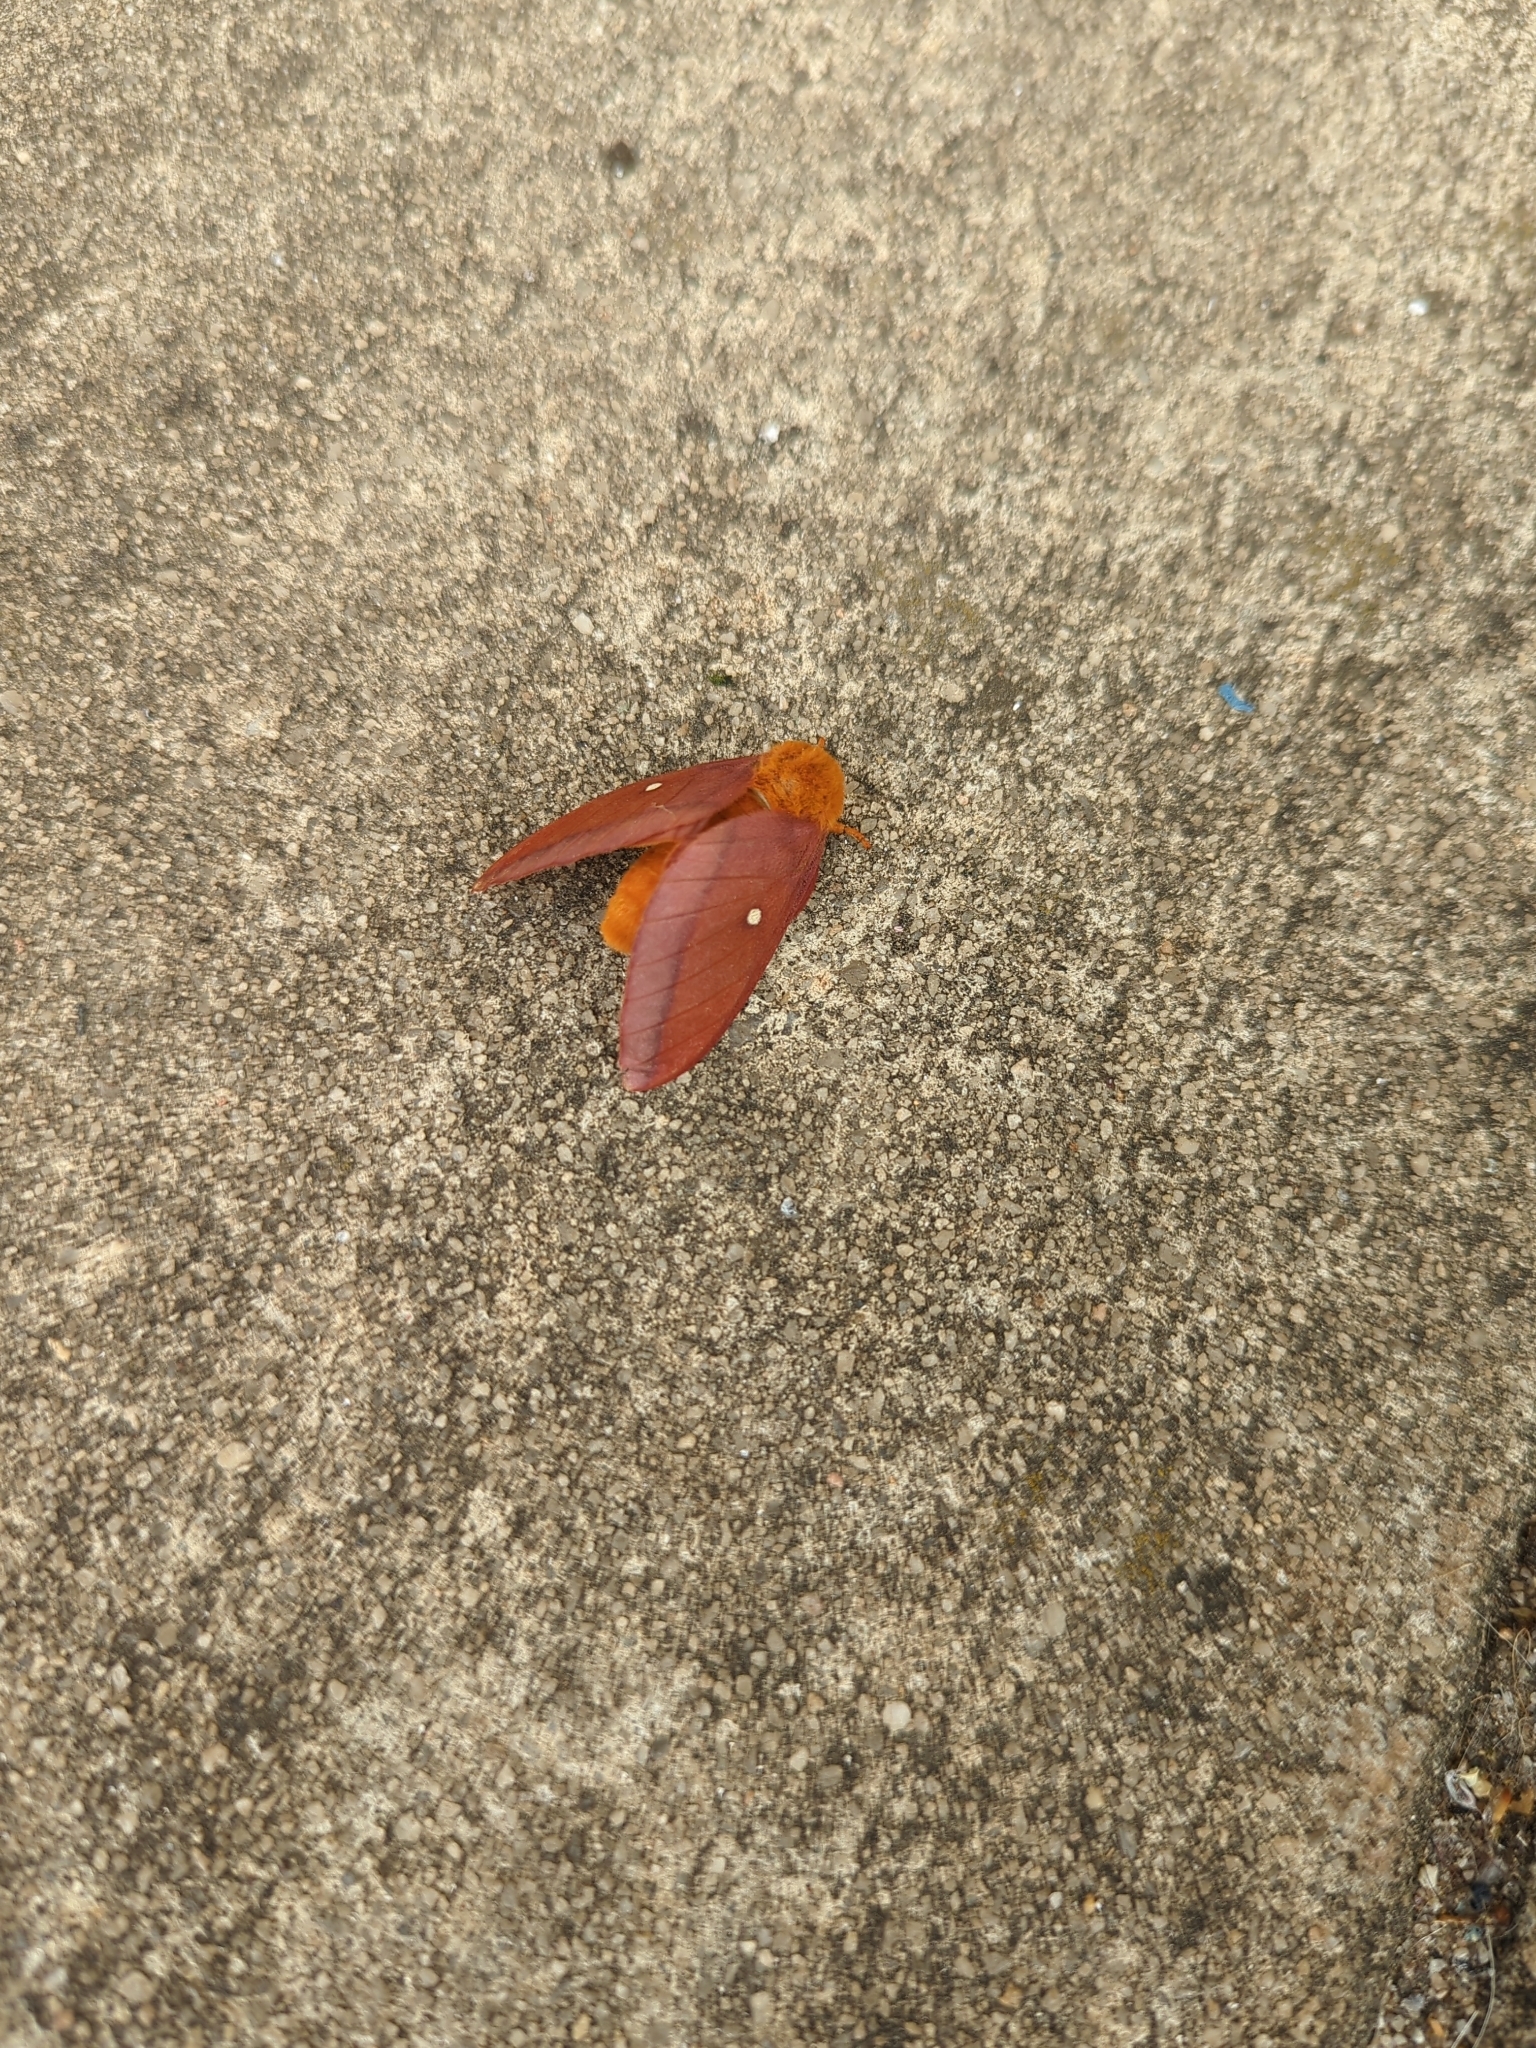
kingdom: Animalia
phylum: Arthropoda
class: Insecta
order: Lepidoptera
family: Saturniidae
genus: Anisota
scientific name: Anisota virginiensis
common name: Pink striped oakworm moth
